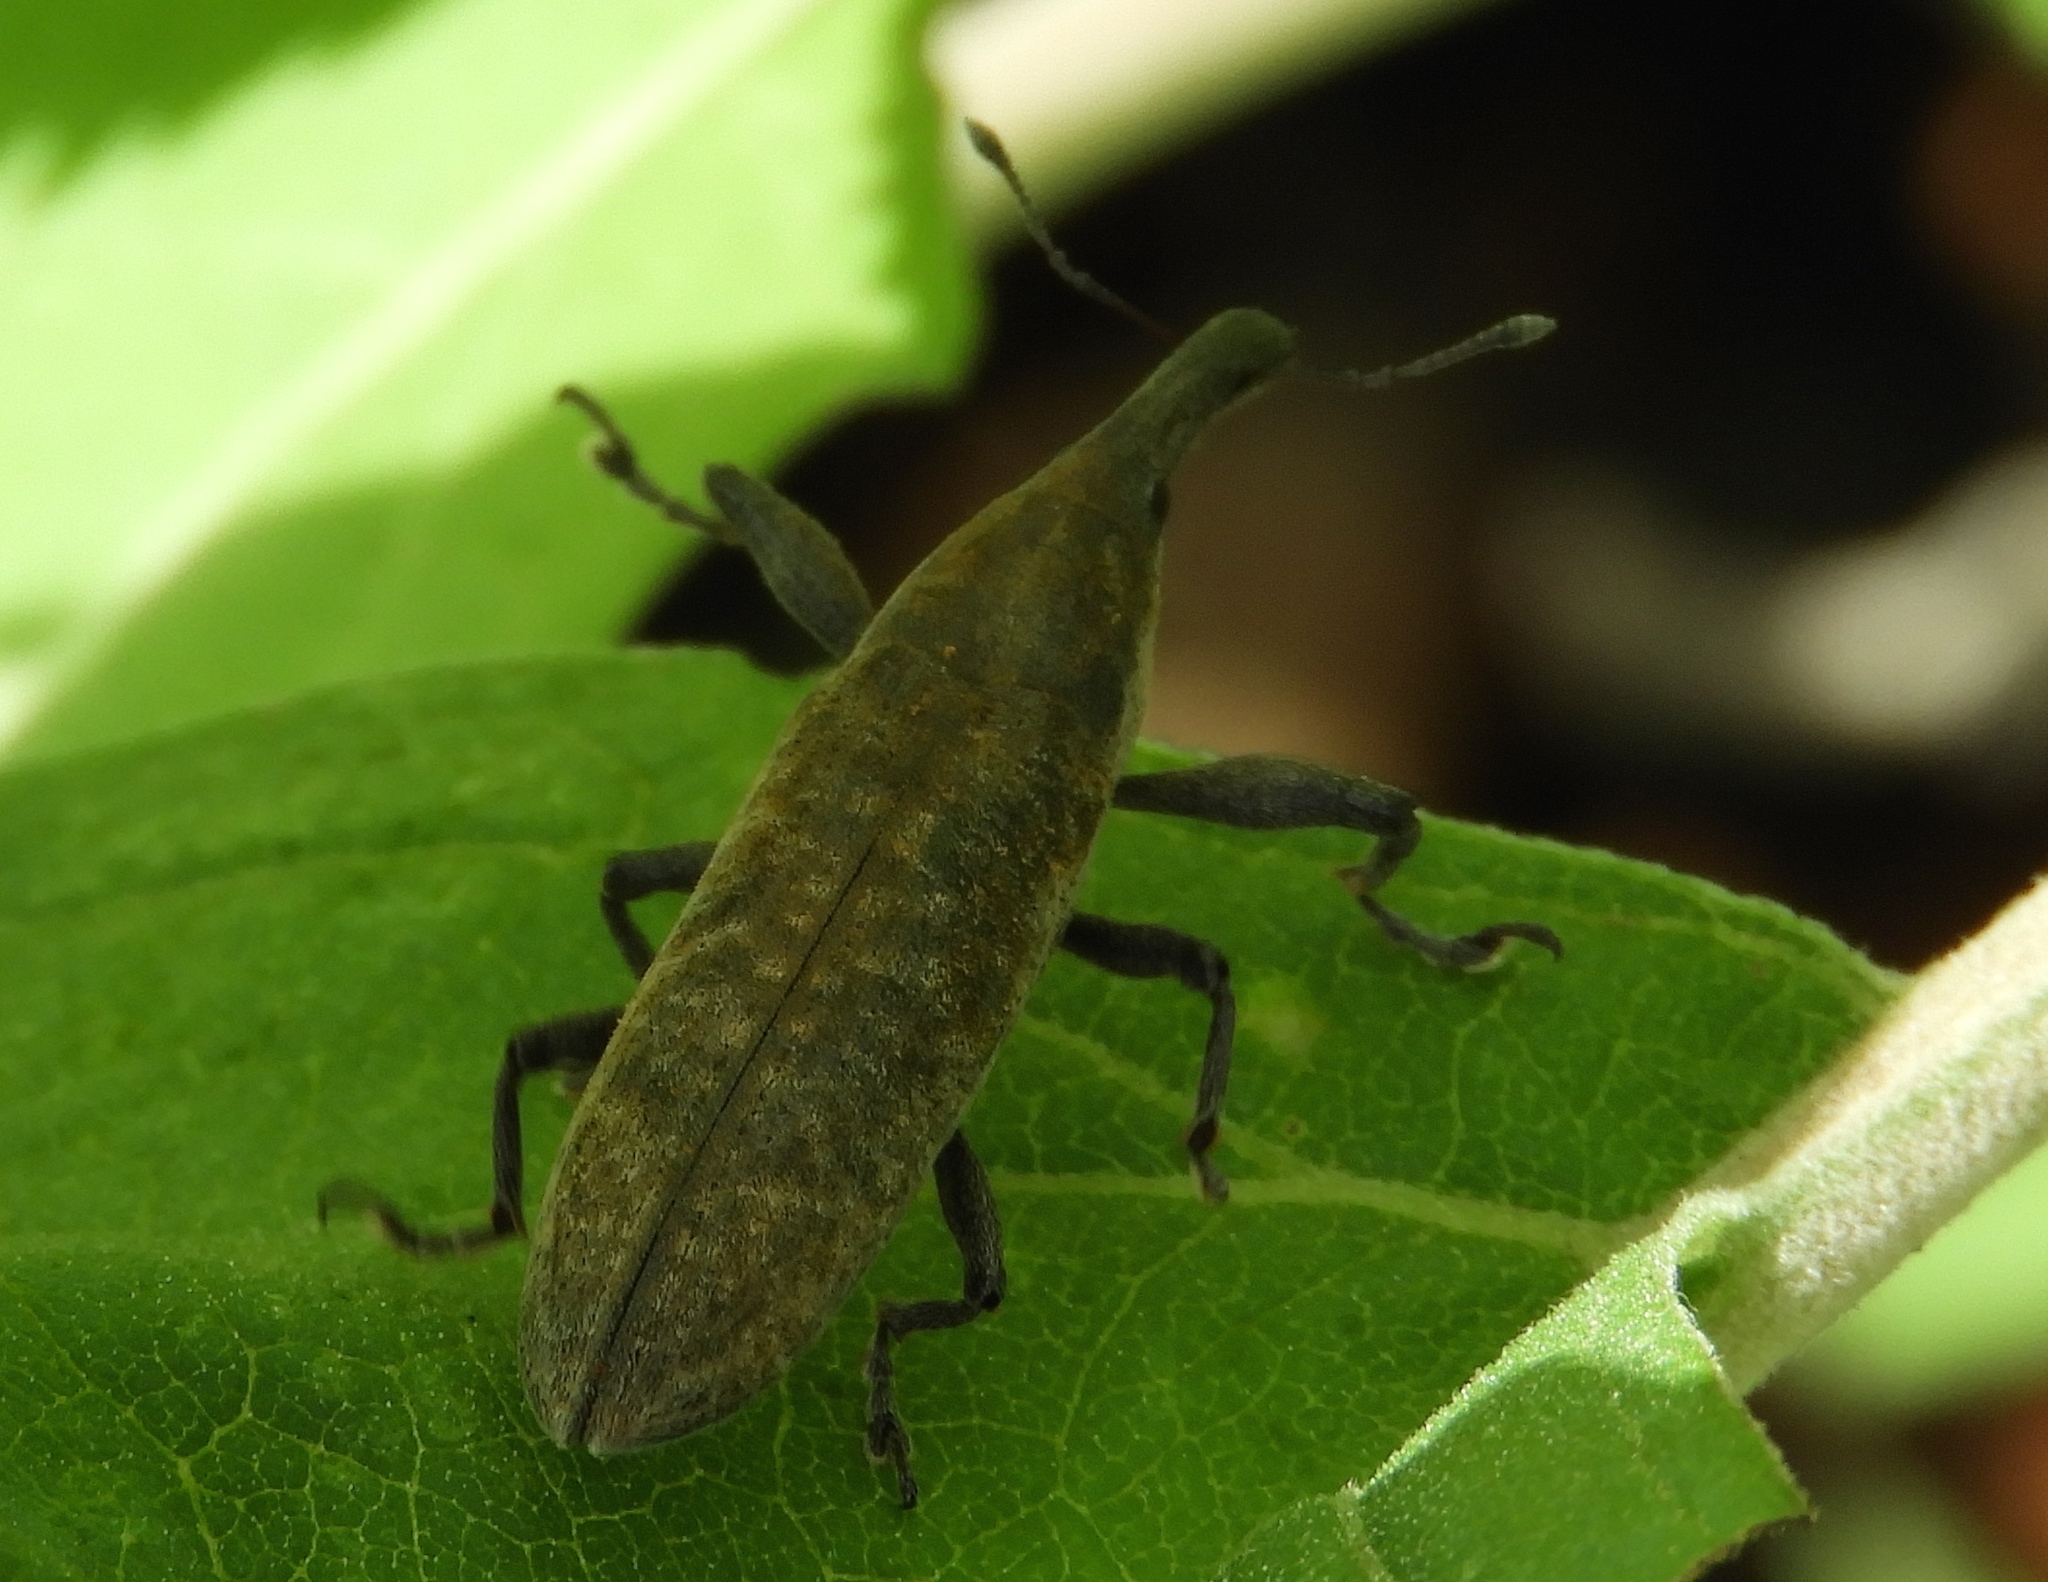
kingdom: Animalia
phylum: Arthropoda
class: Insecta
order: Coleoptera
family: Curculionidae
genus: Lixus
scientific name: Lixus
